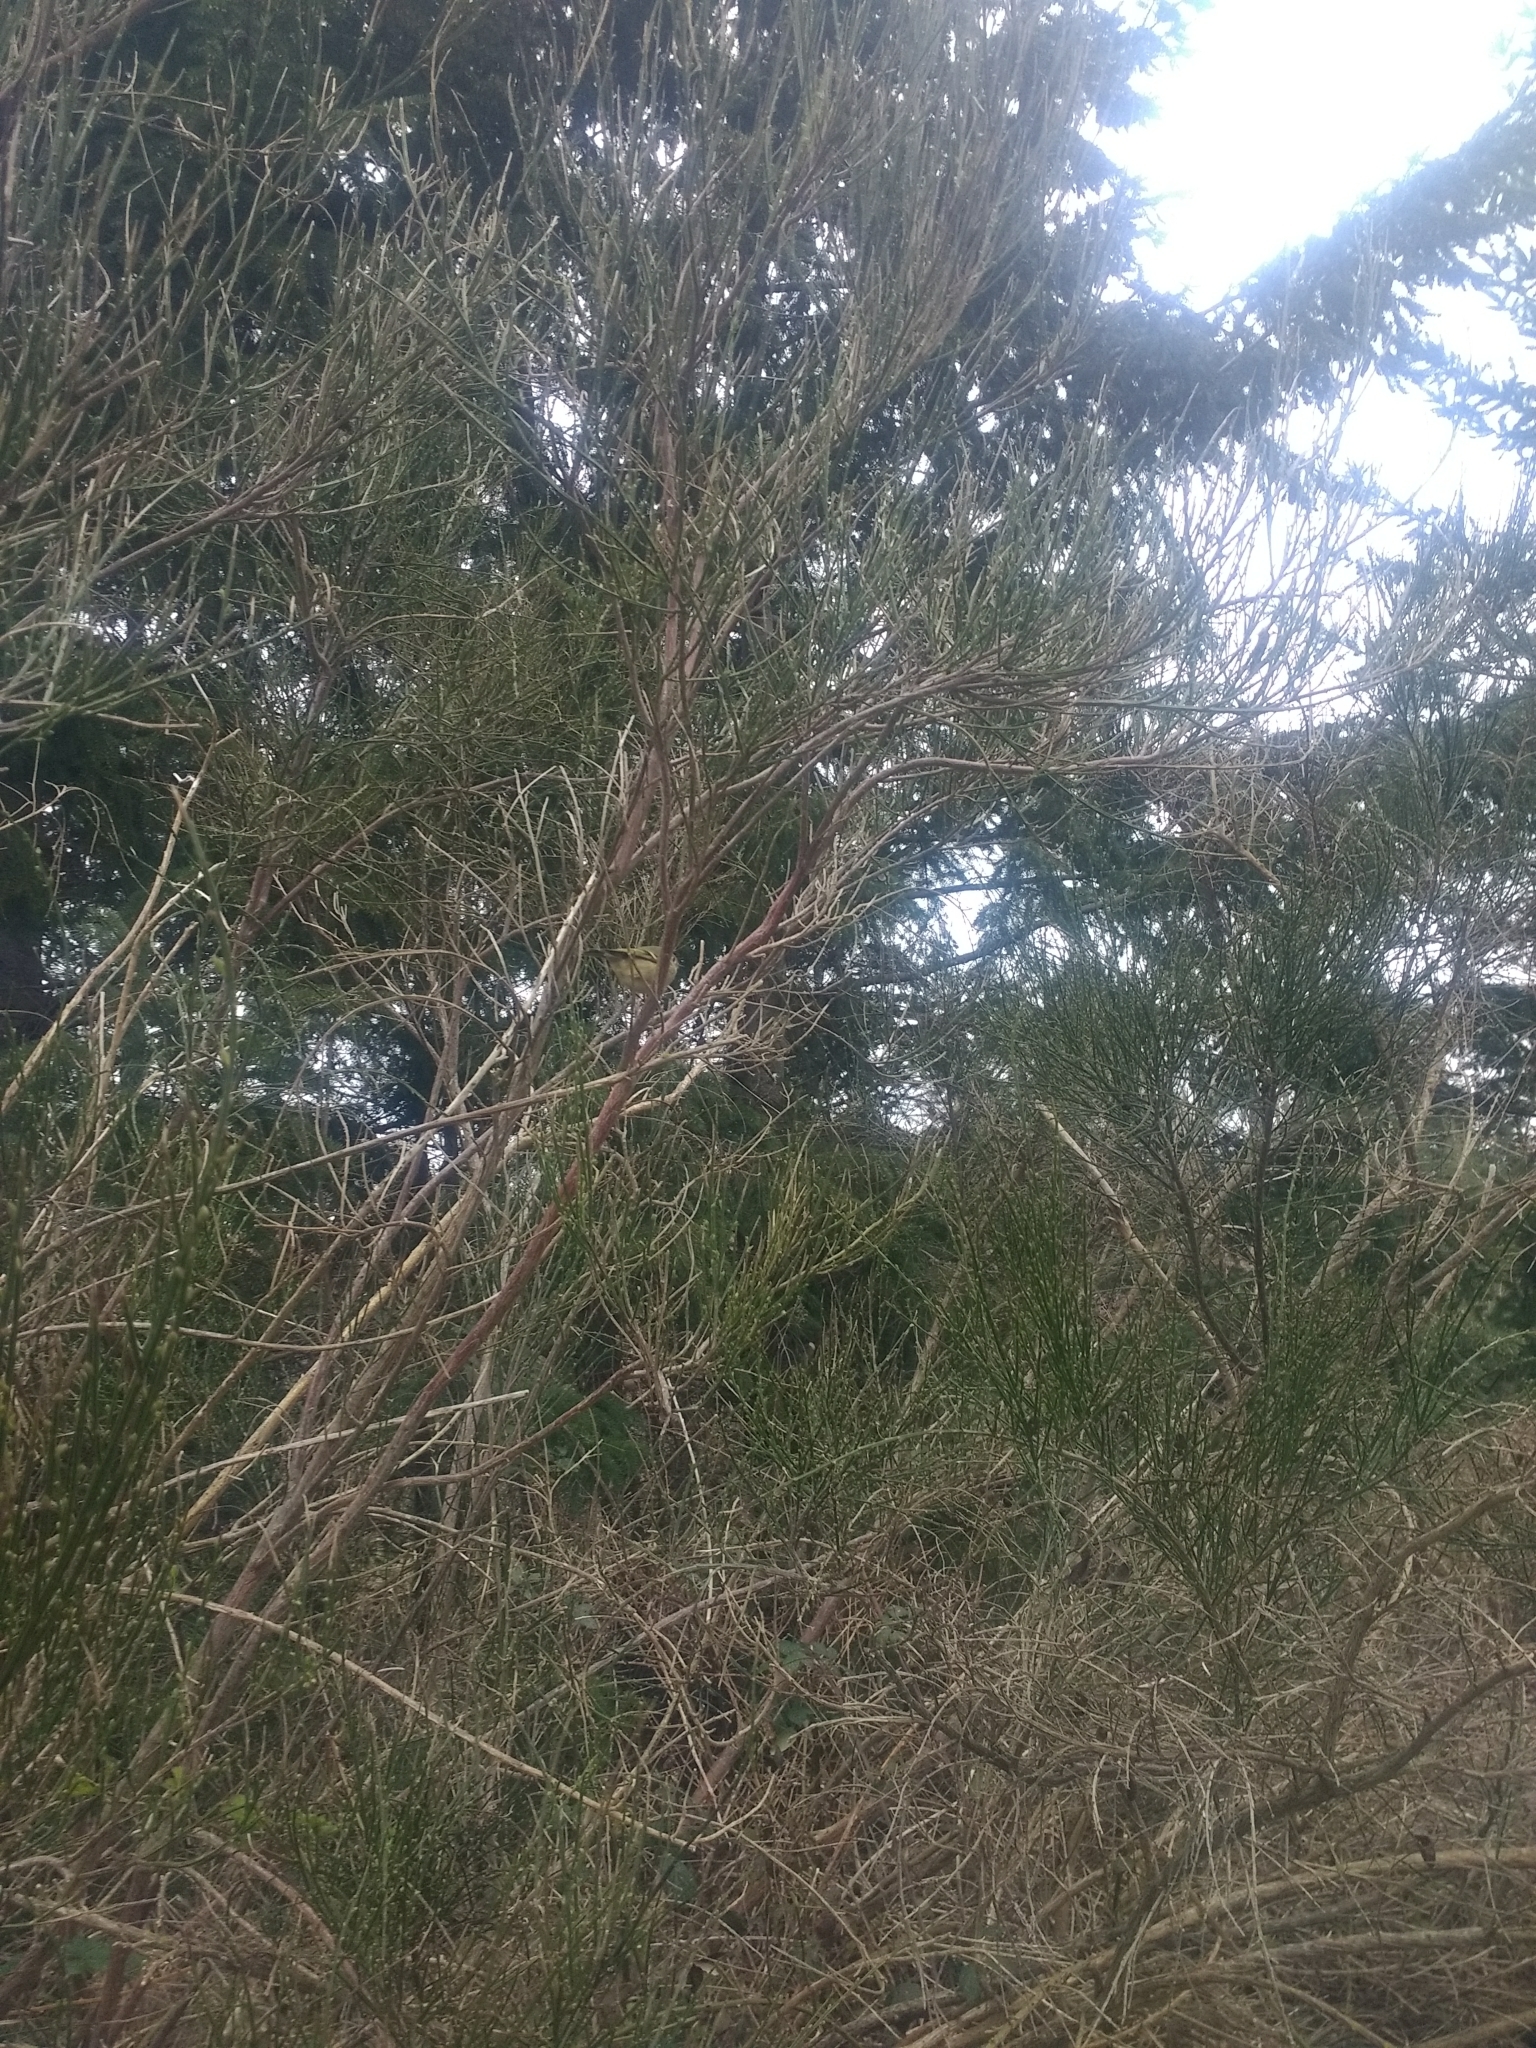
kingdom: Animalia
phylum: Chordata
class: Aves
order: Passeriformes
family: Regulidae
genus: Regulus
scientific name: Regulus calendula
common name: Ruby-crowned kinglet
